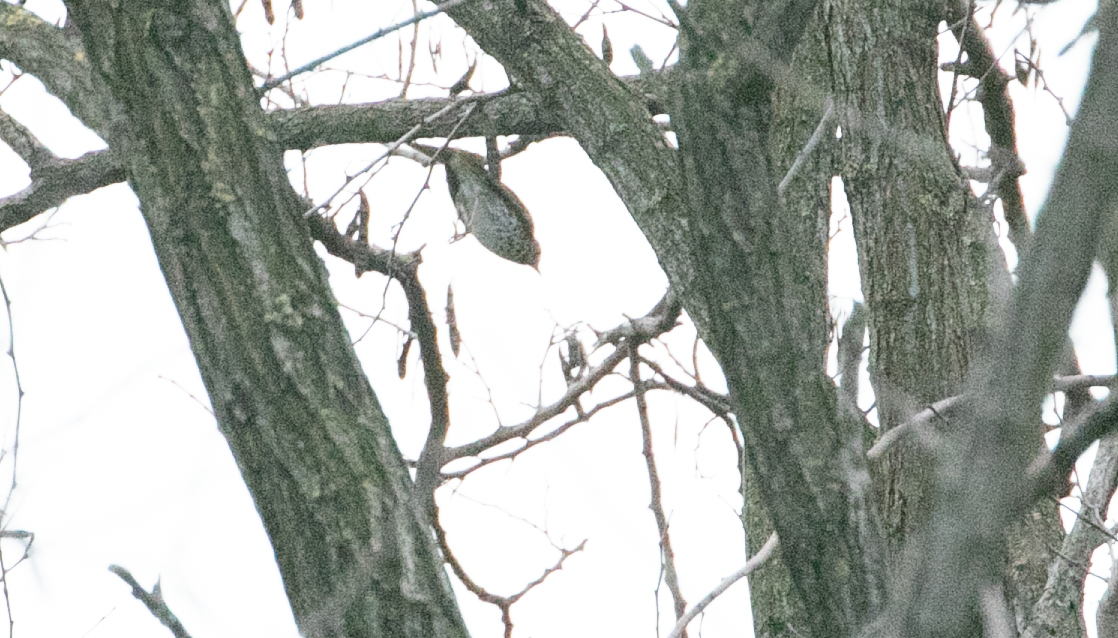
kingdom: Animalia
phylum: Chordata
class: Aves
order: Passeriformes
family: Turdidae
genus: Turdus
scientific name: Turdus philomelos
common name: Song thrush
